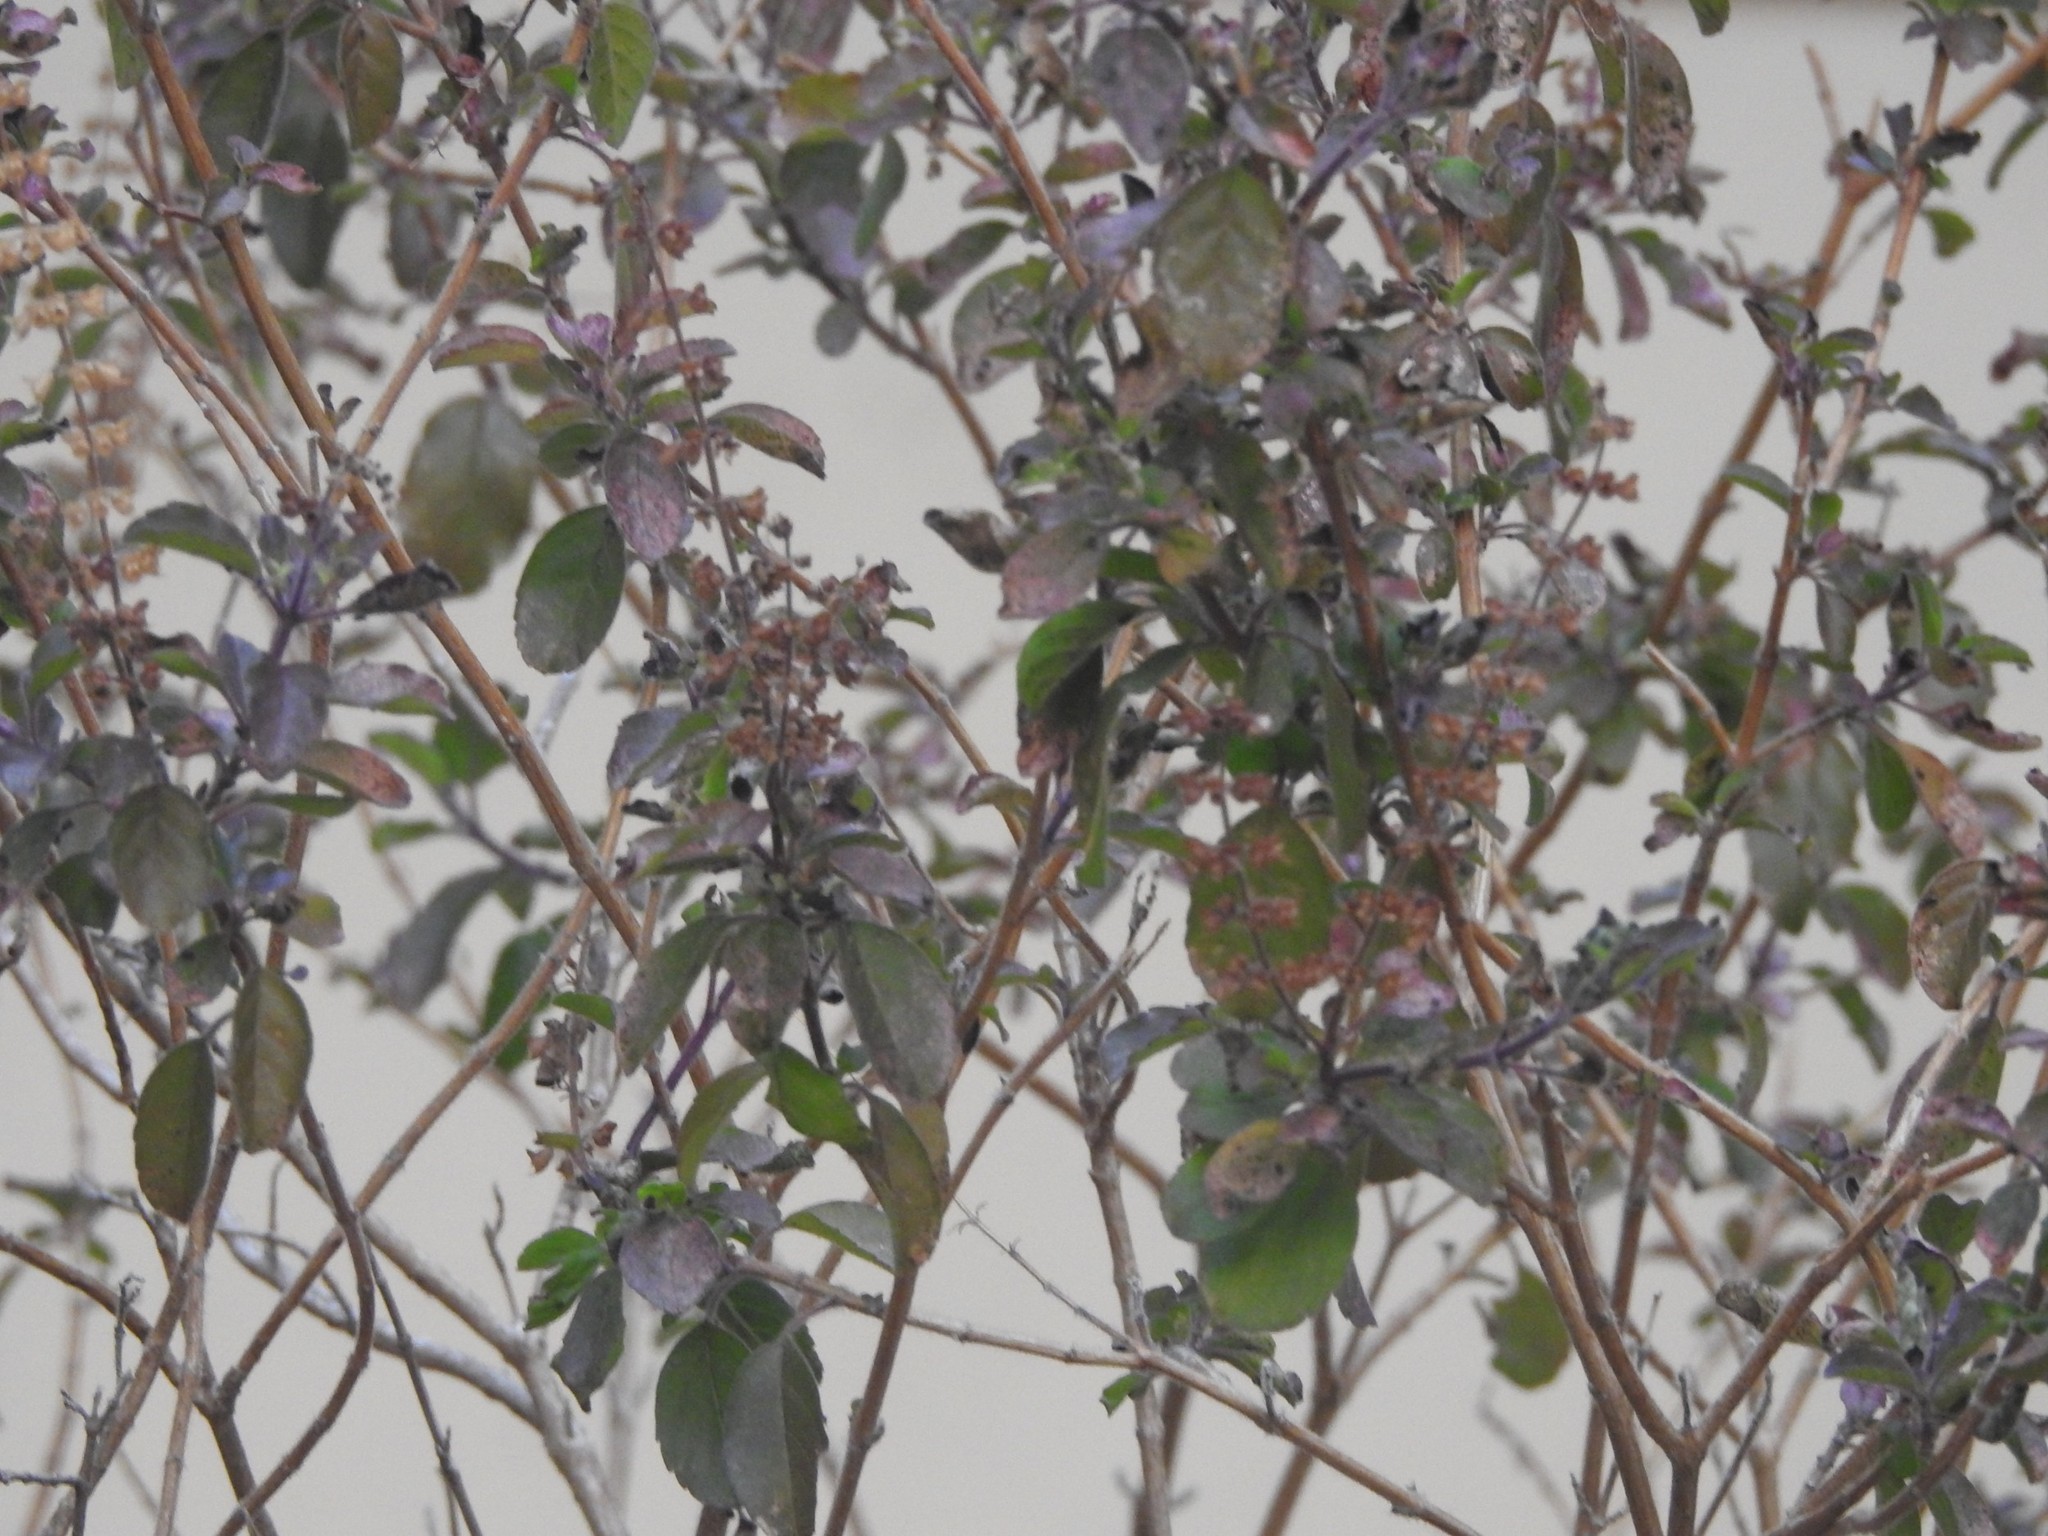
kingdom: Plantae
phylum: Tracheophyta
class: Magnoliopsida
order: Lamiales
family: Lamiaceae
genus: Ocimum
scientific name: Ocimum tenuiflorum
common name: Sacred basil
